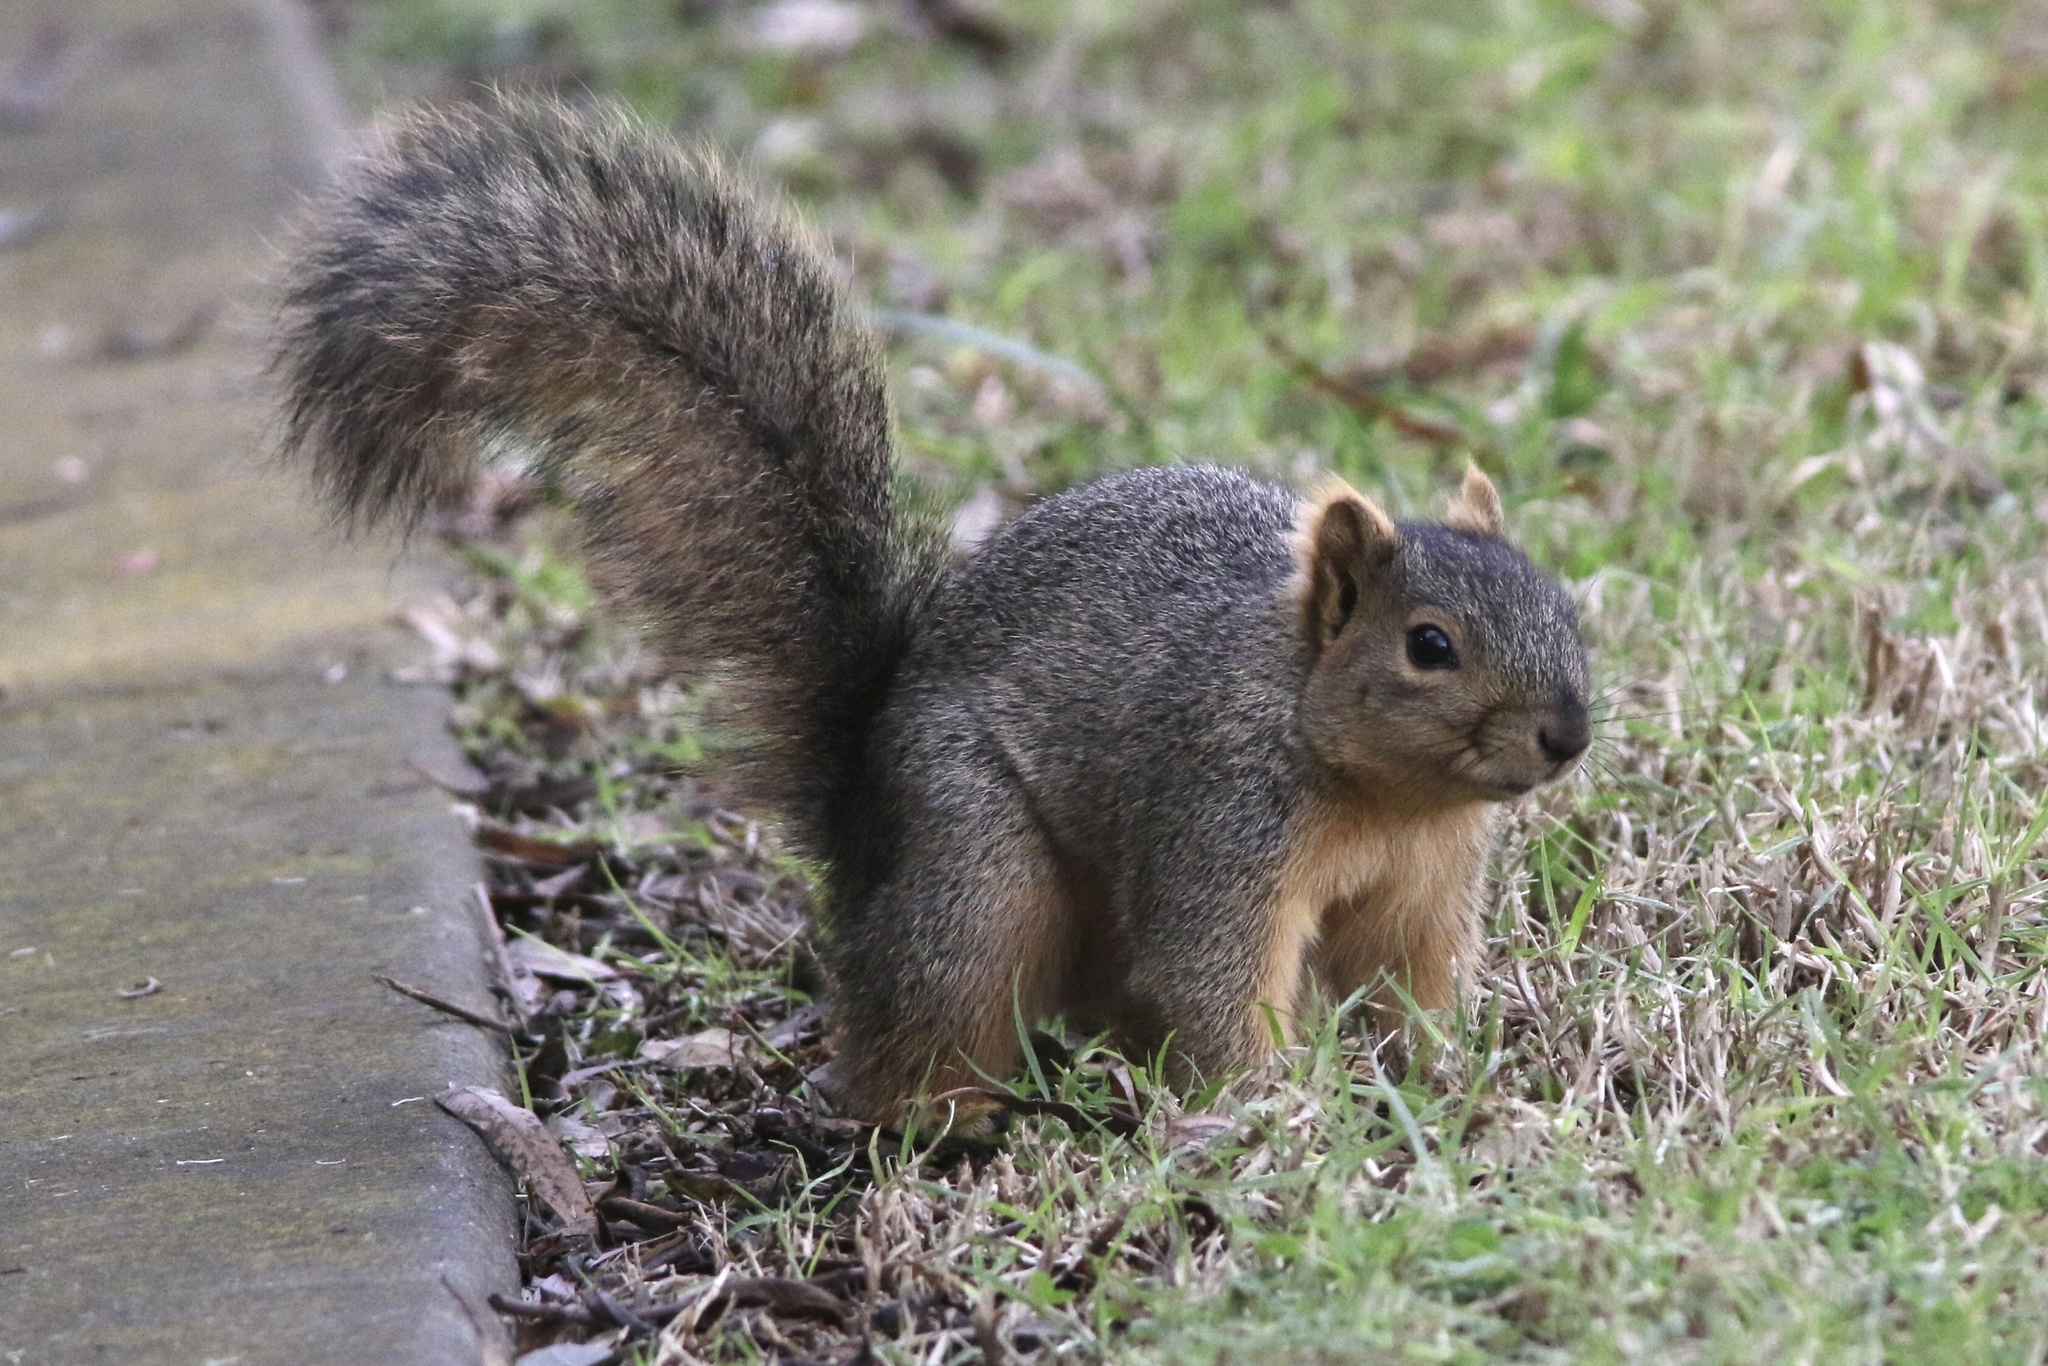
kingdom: Animalia
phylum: Chordata
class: Mammalia
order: Rodentia
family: Sciuridae
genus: Sciurus
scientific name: Sciurus niger
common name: Fox squirrel
